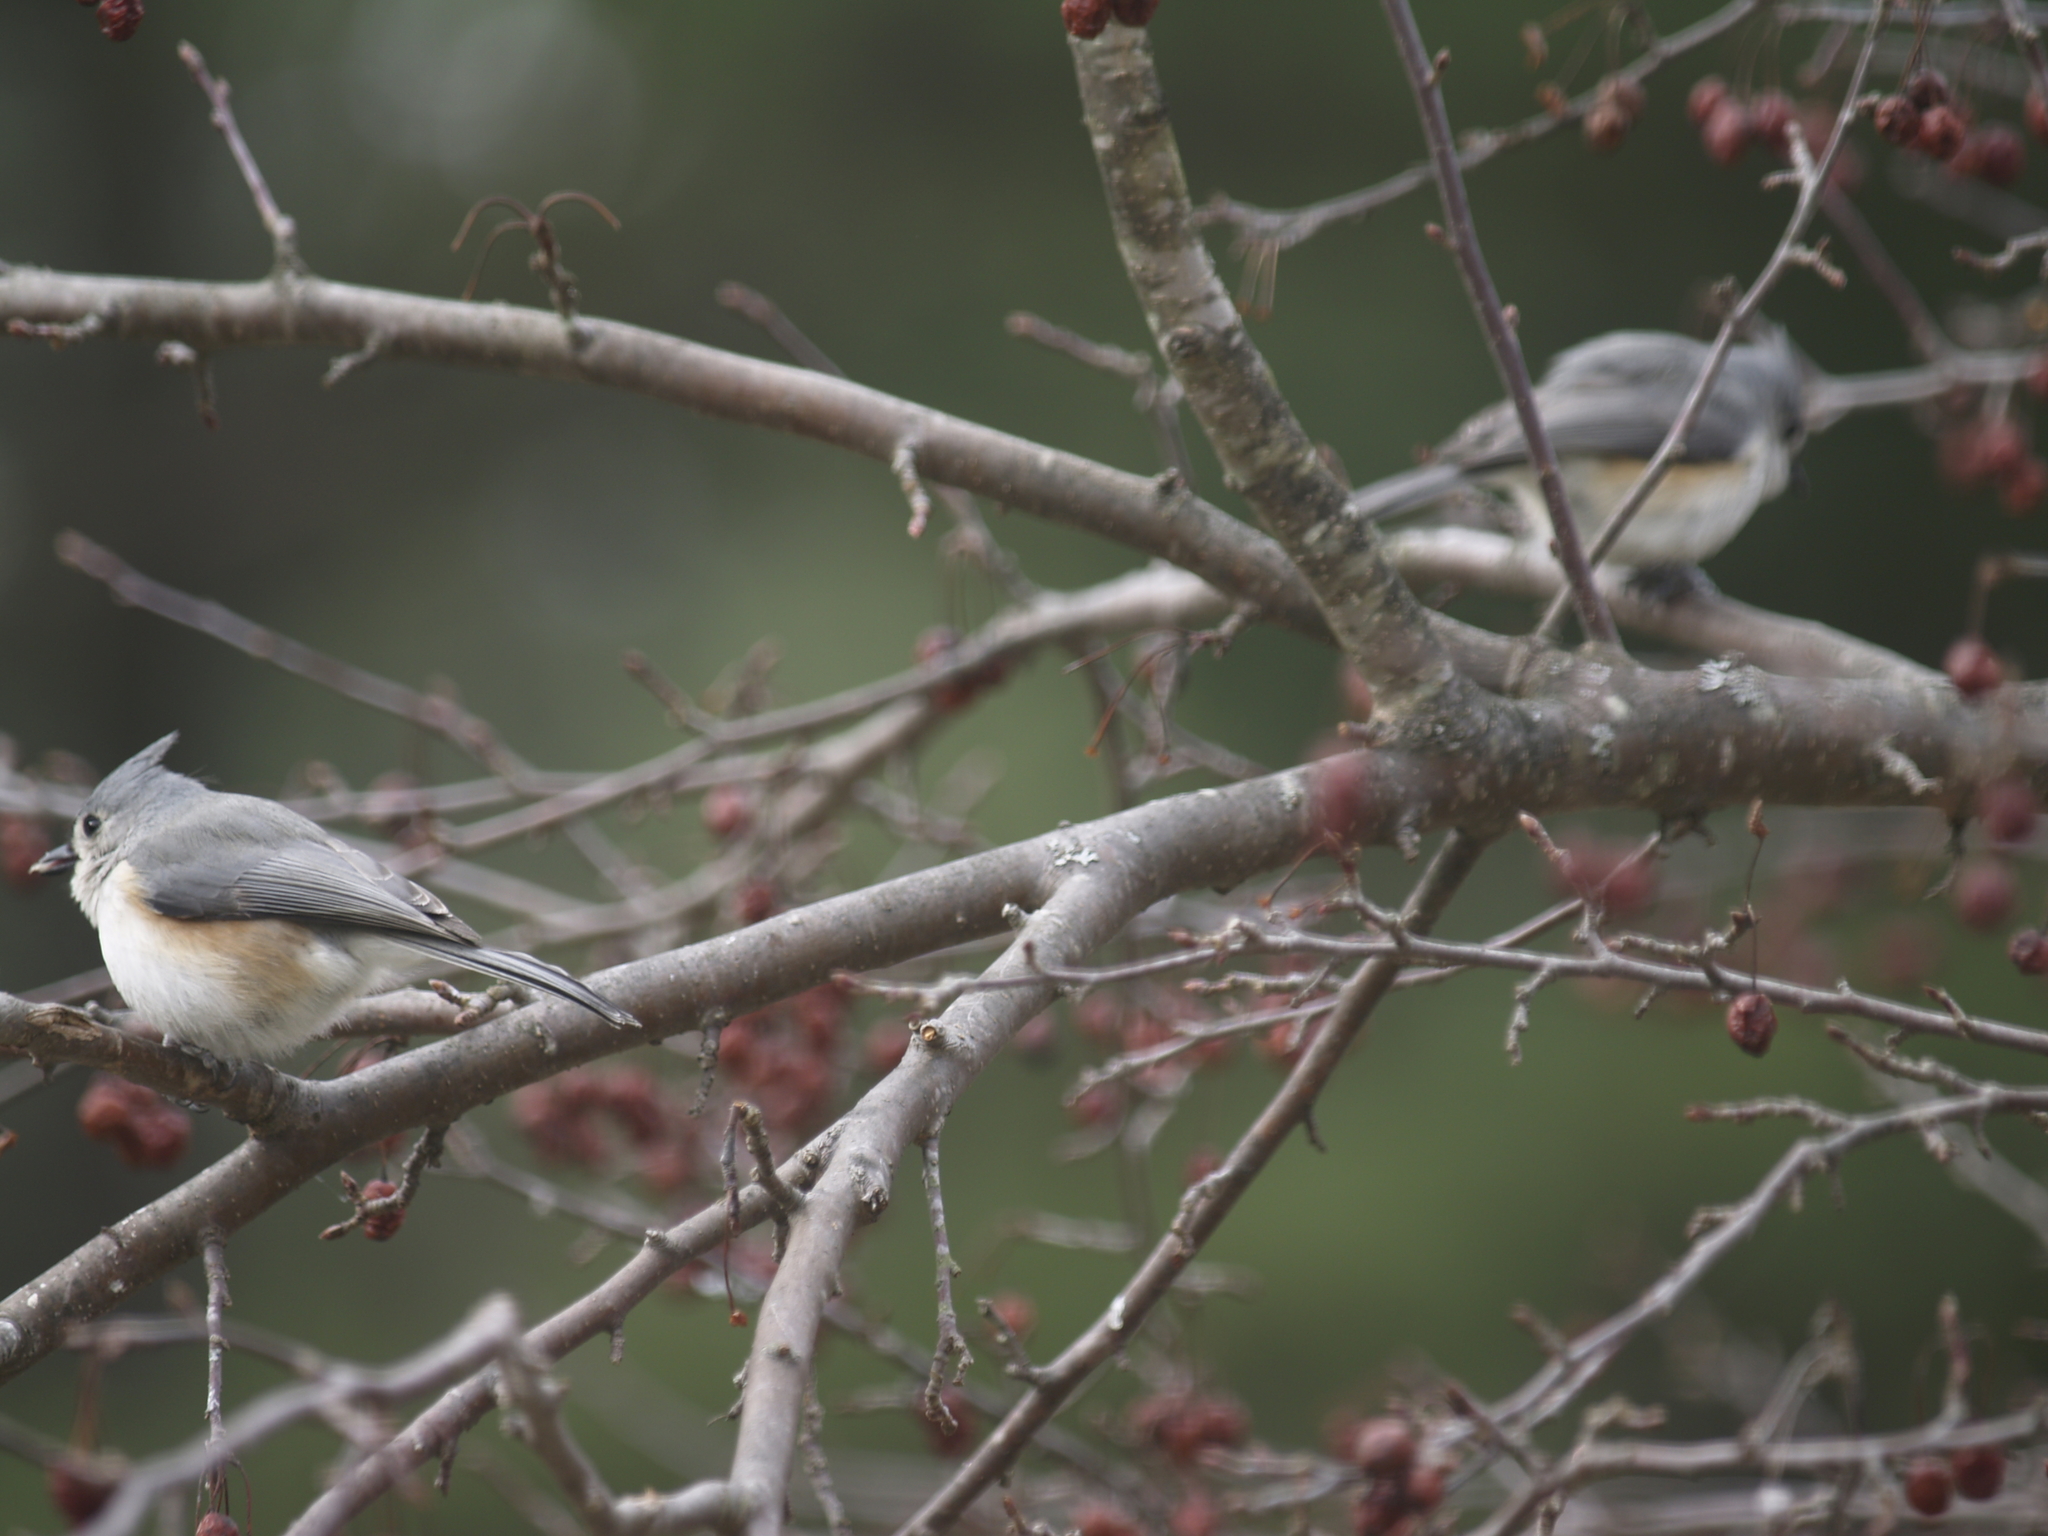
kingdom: Animalia
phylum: Chordata
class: Aves
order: Passeriformes
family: Paridae
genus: Baeolophus
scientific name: Baeolophus bicolor
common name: Tufted titmouse
